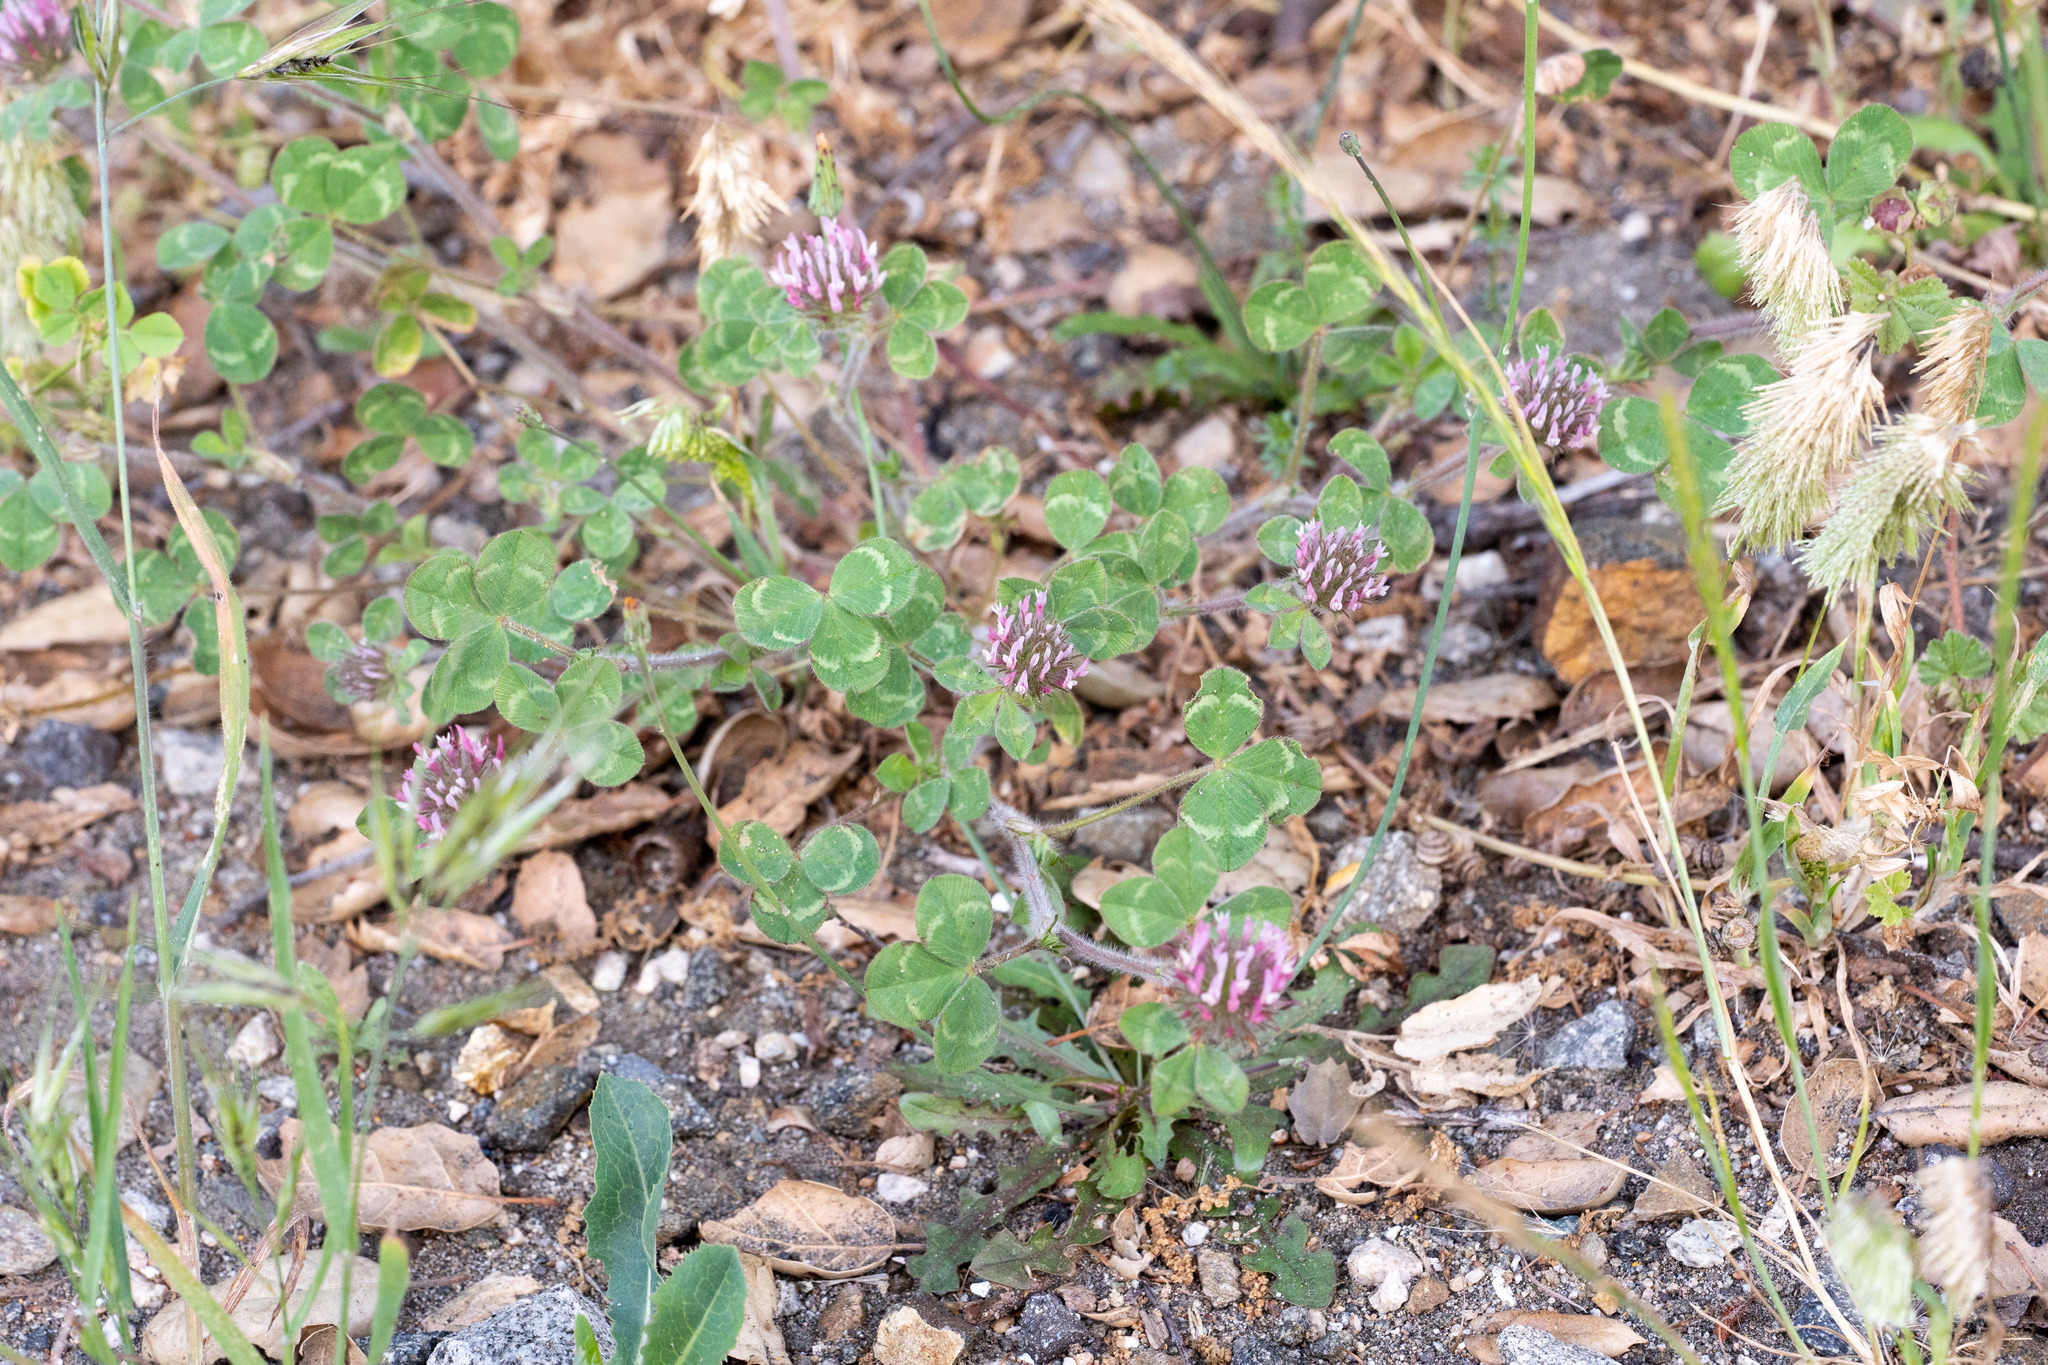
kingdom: Plantae
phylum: Tracheophyta
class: Magnoliopsida
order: Fabales
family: Fabaceae
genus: Trifolium
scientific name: Trifolium hirtum
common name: Rose clover
